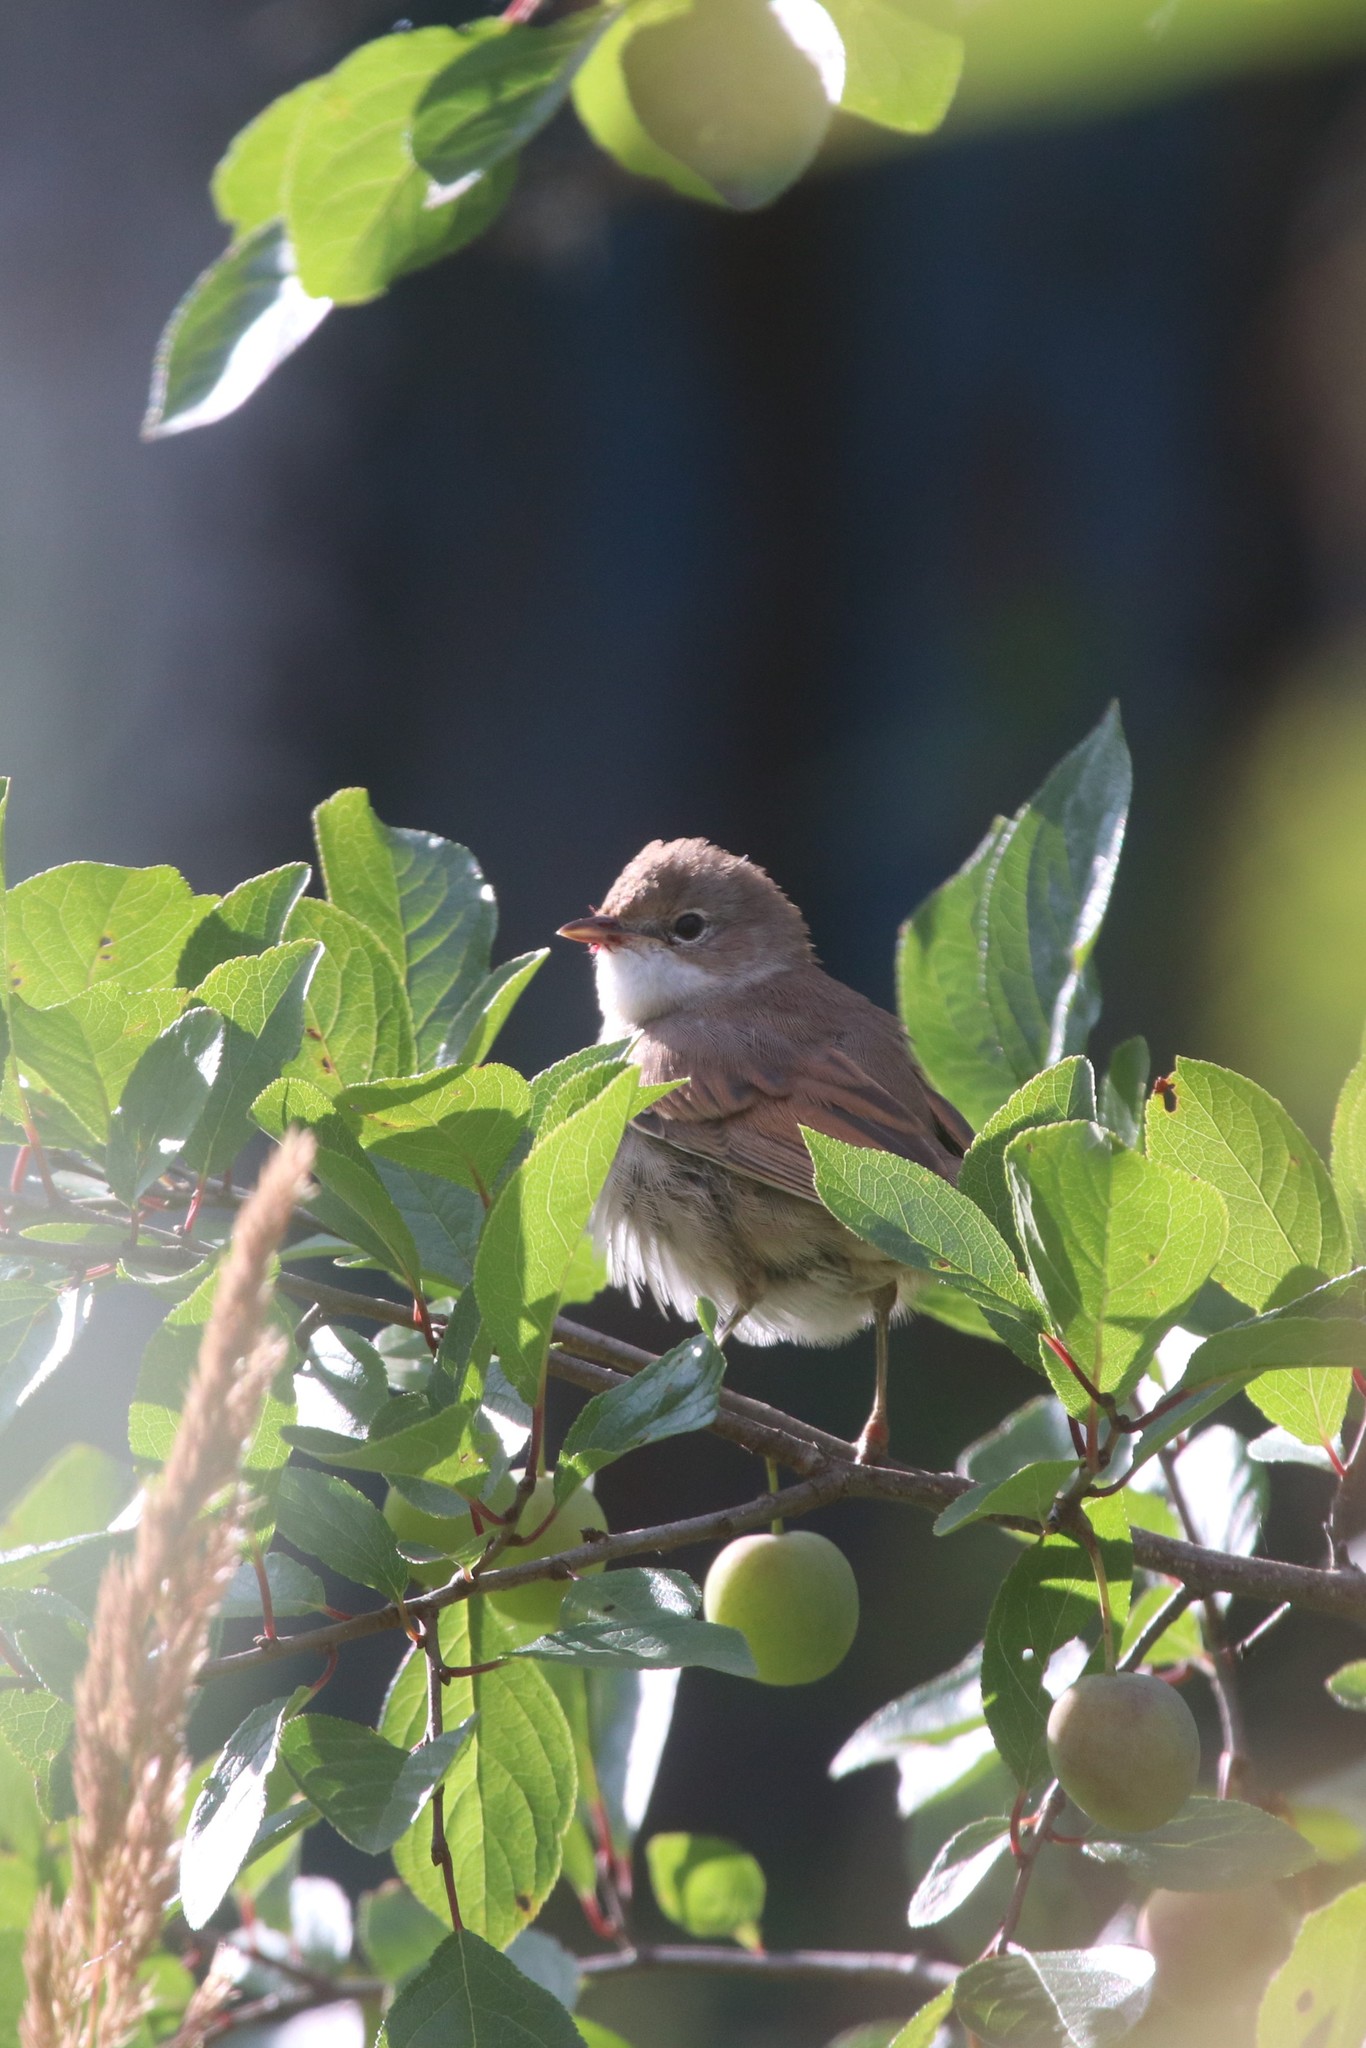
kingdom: Animalia
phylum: Chordata
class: Aves
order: Passeriformes
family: Sylviidae
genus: Sylvia
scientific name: Sylvia communis
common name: Common whitethroat
